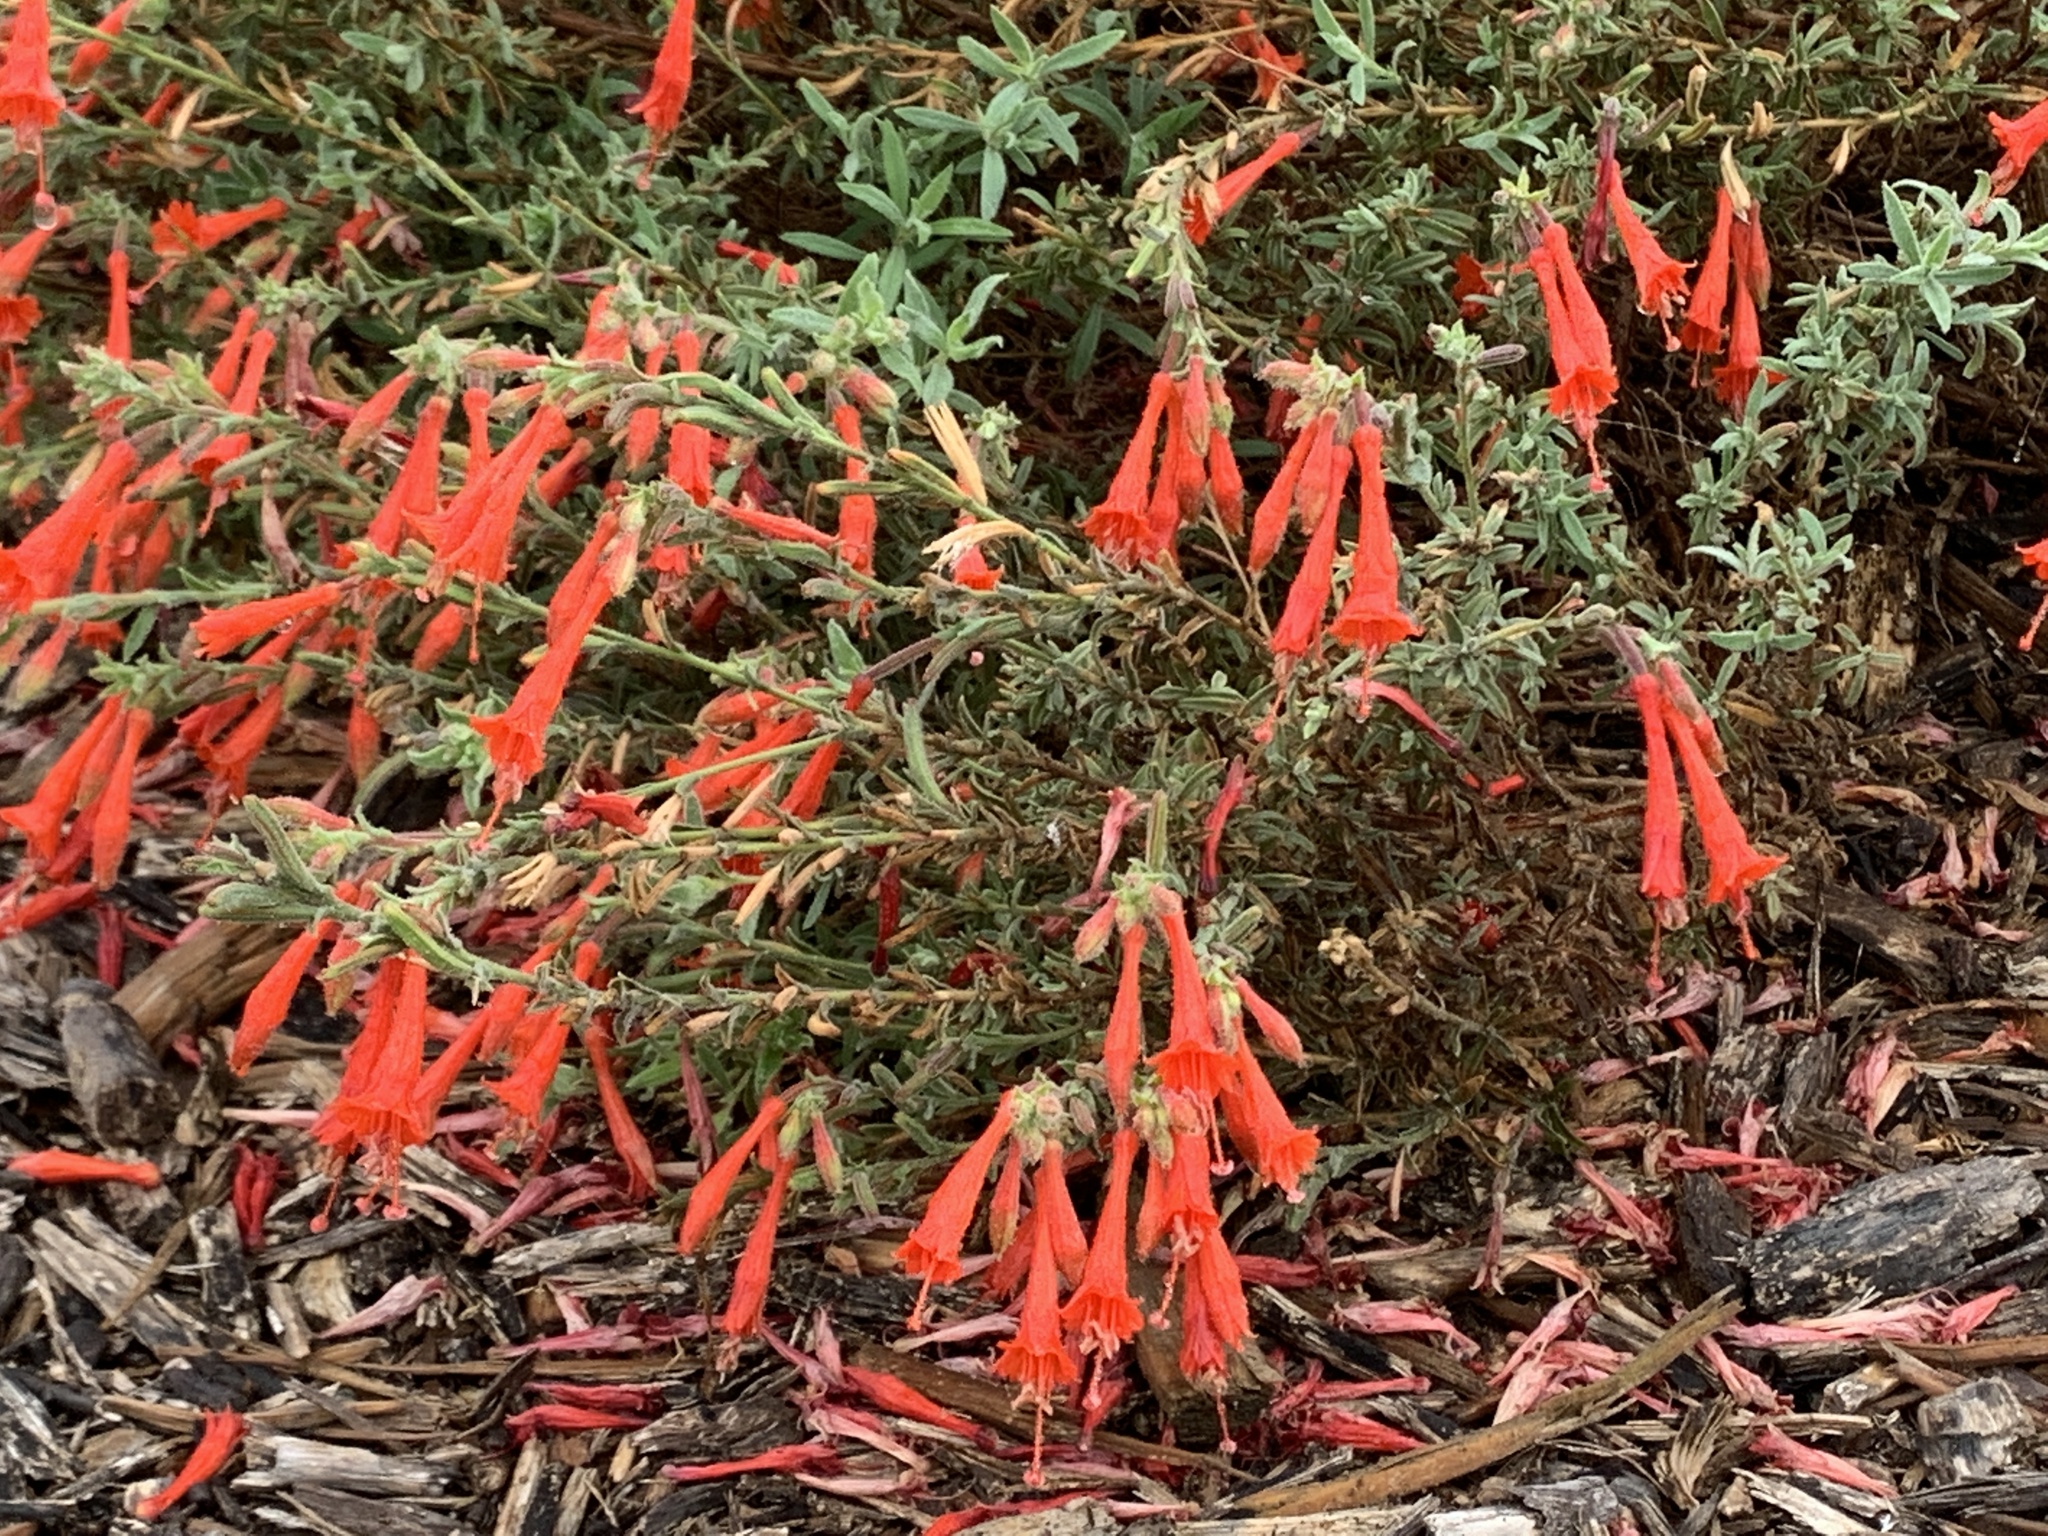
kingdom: Plantae
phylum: Tracheophyta
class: Magnoliopsida
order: Myrtales
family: Onagraceae
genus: Epilobium
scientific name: Epilobium canum
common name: California-fuchsia
